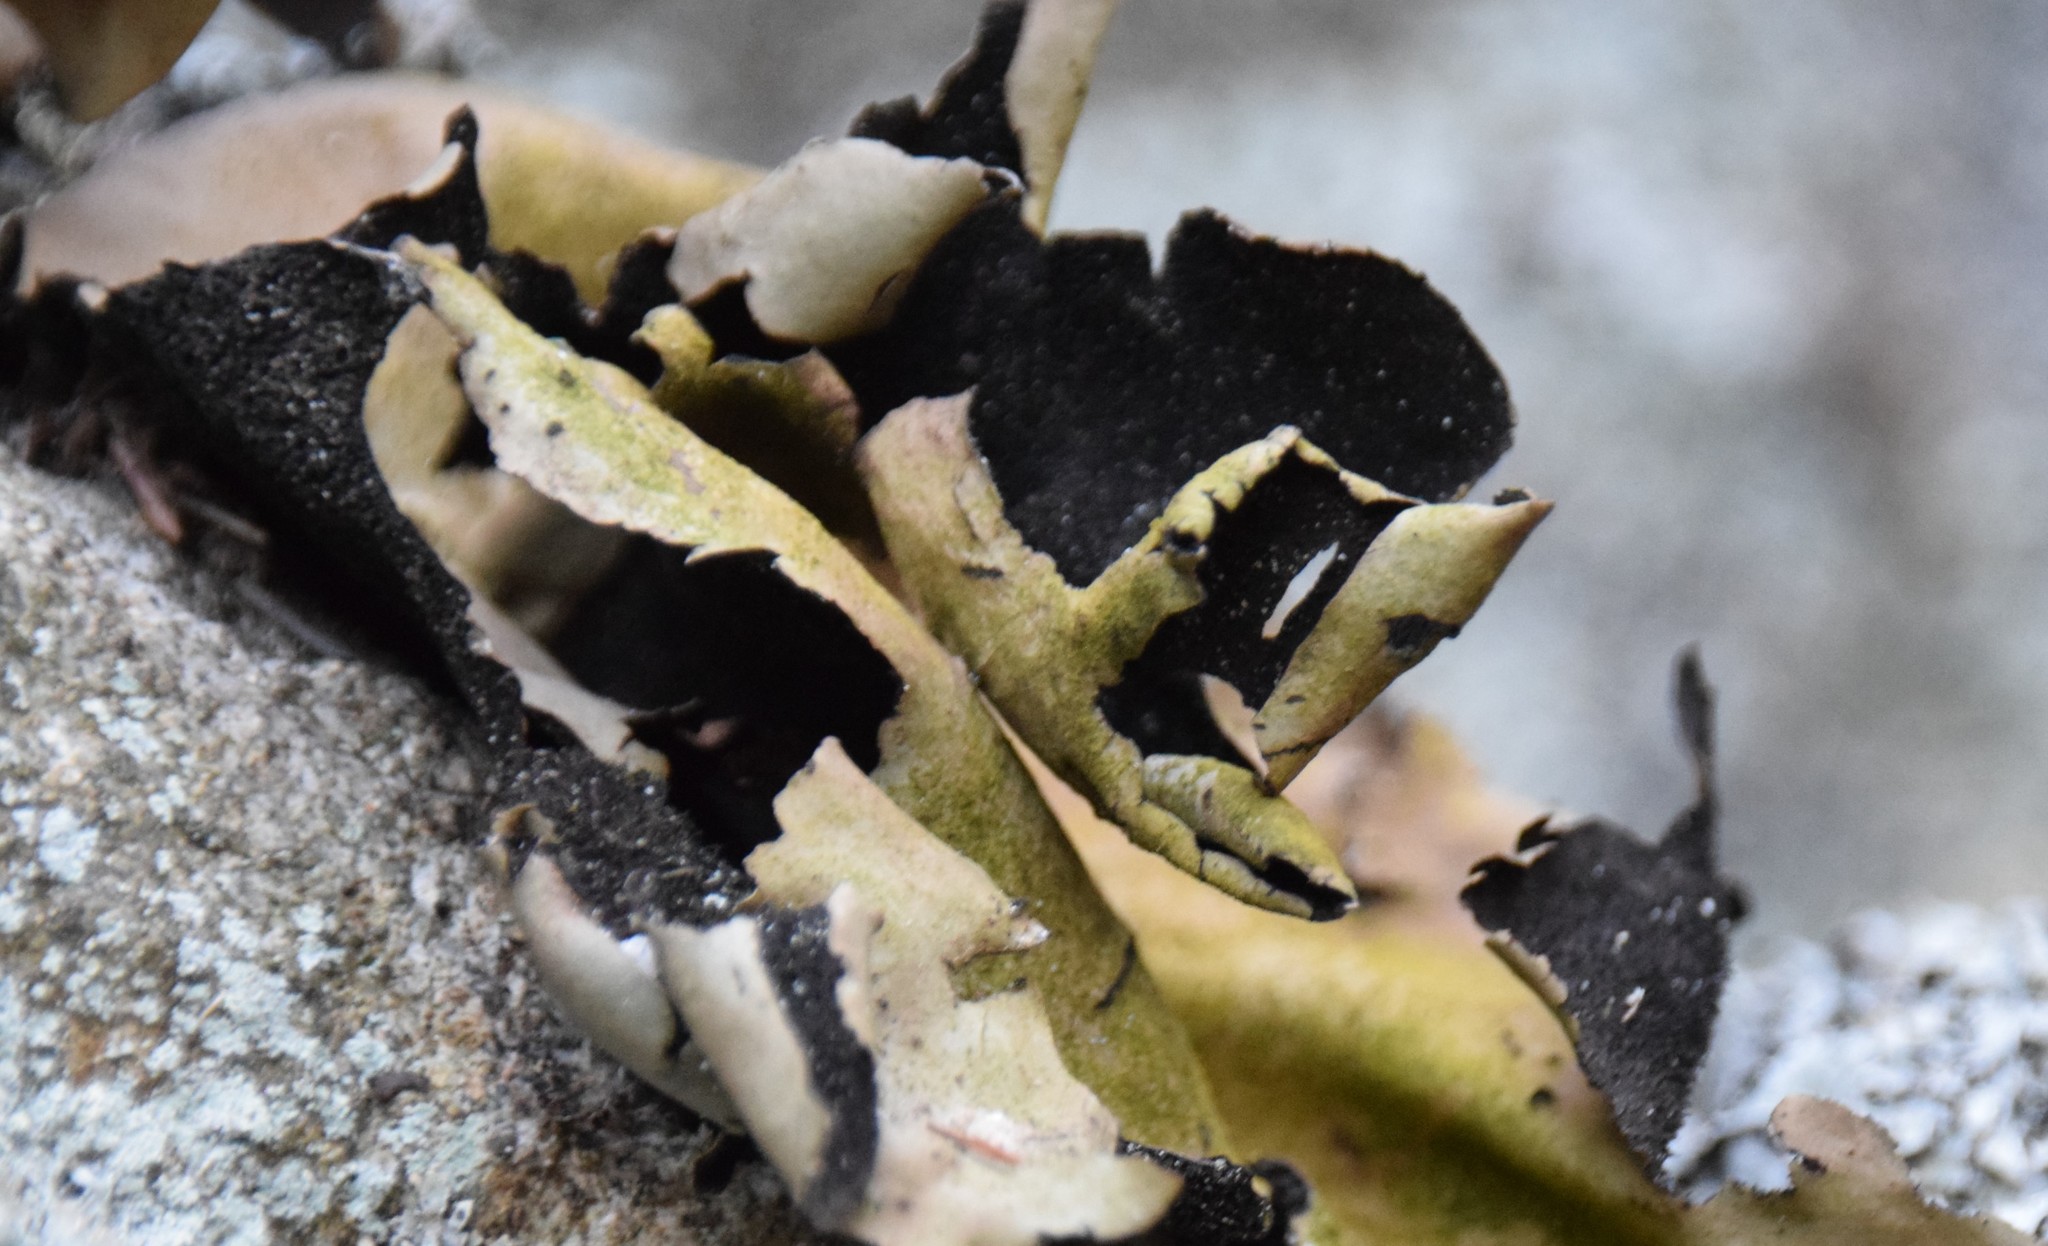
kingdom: Fungi
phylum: Ascomycota
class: Lecanoromycetes
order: Umbilicariales
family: Umbilicariaceae
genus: Umbilicaria
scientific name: Umbilicaria mammulata
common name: Smooth rock tripe
